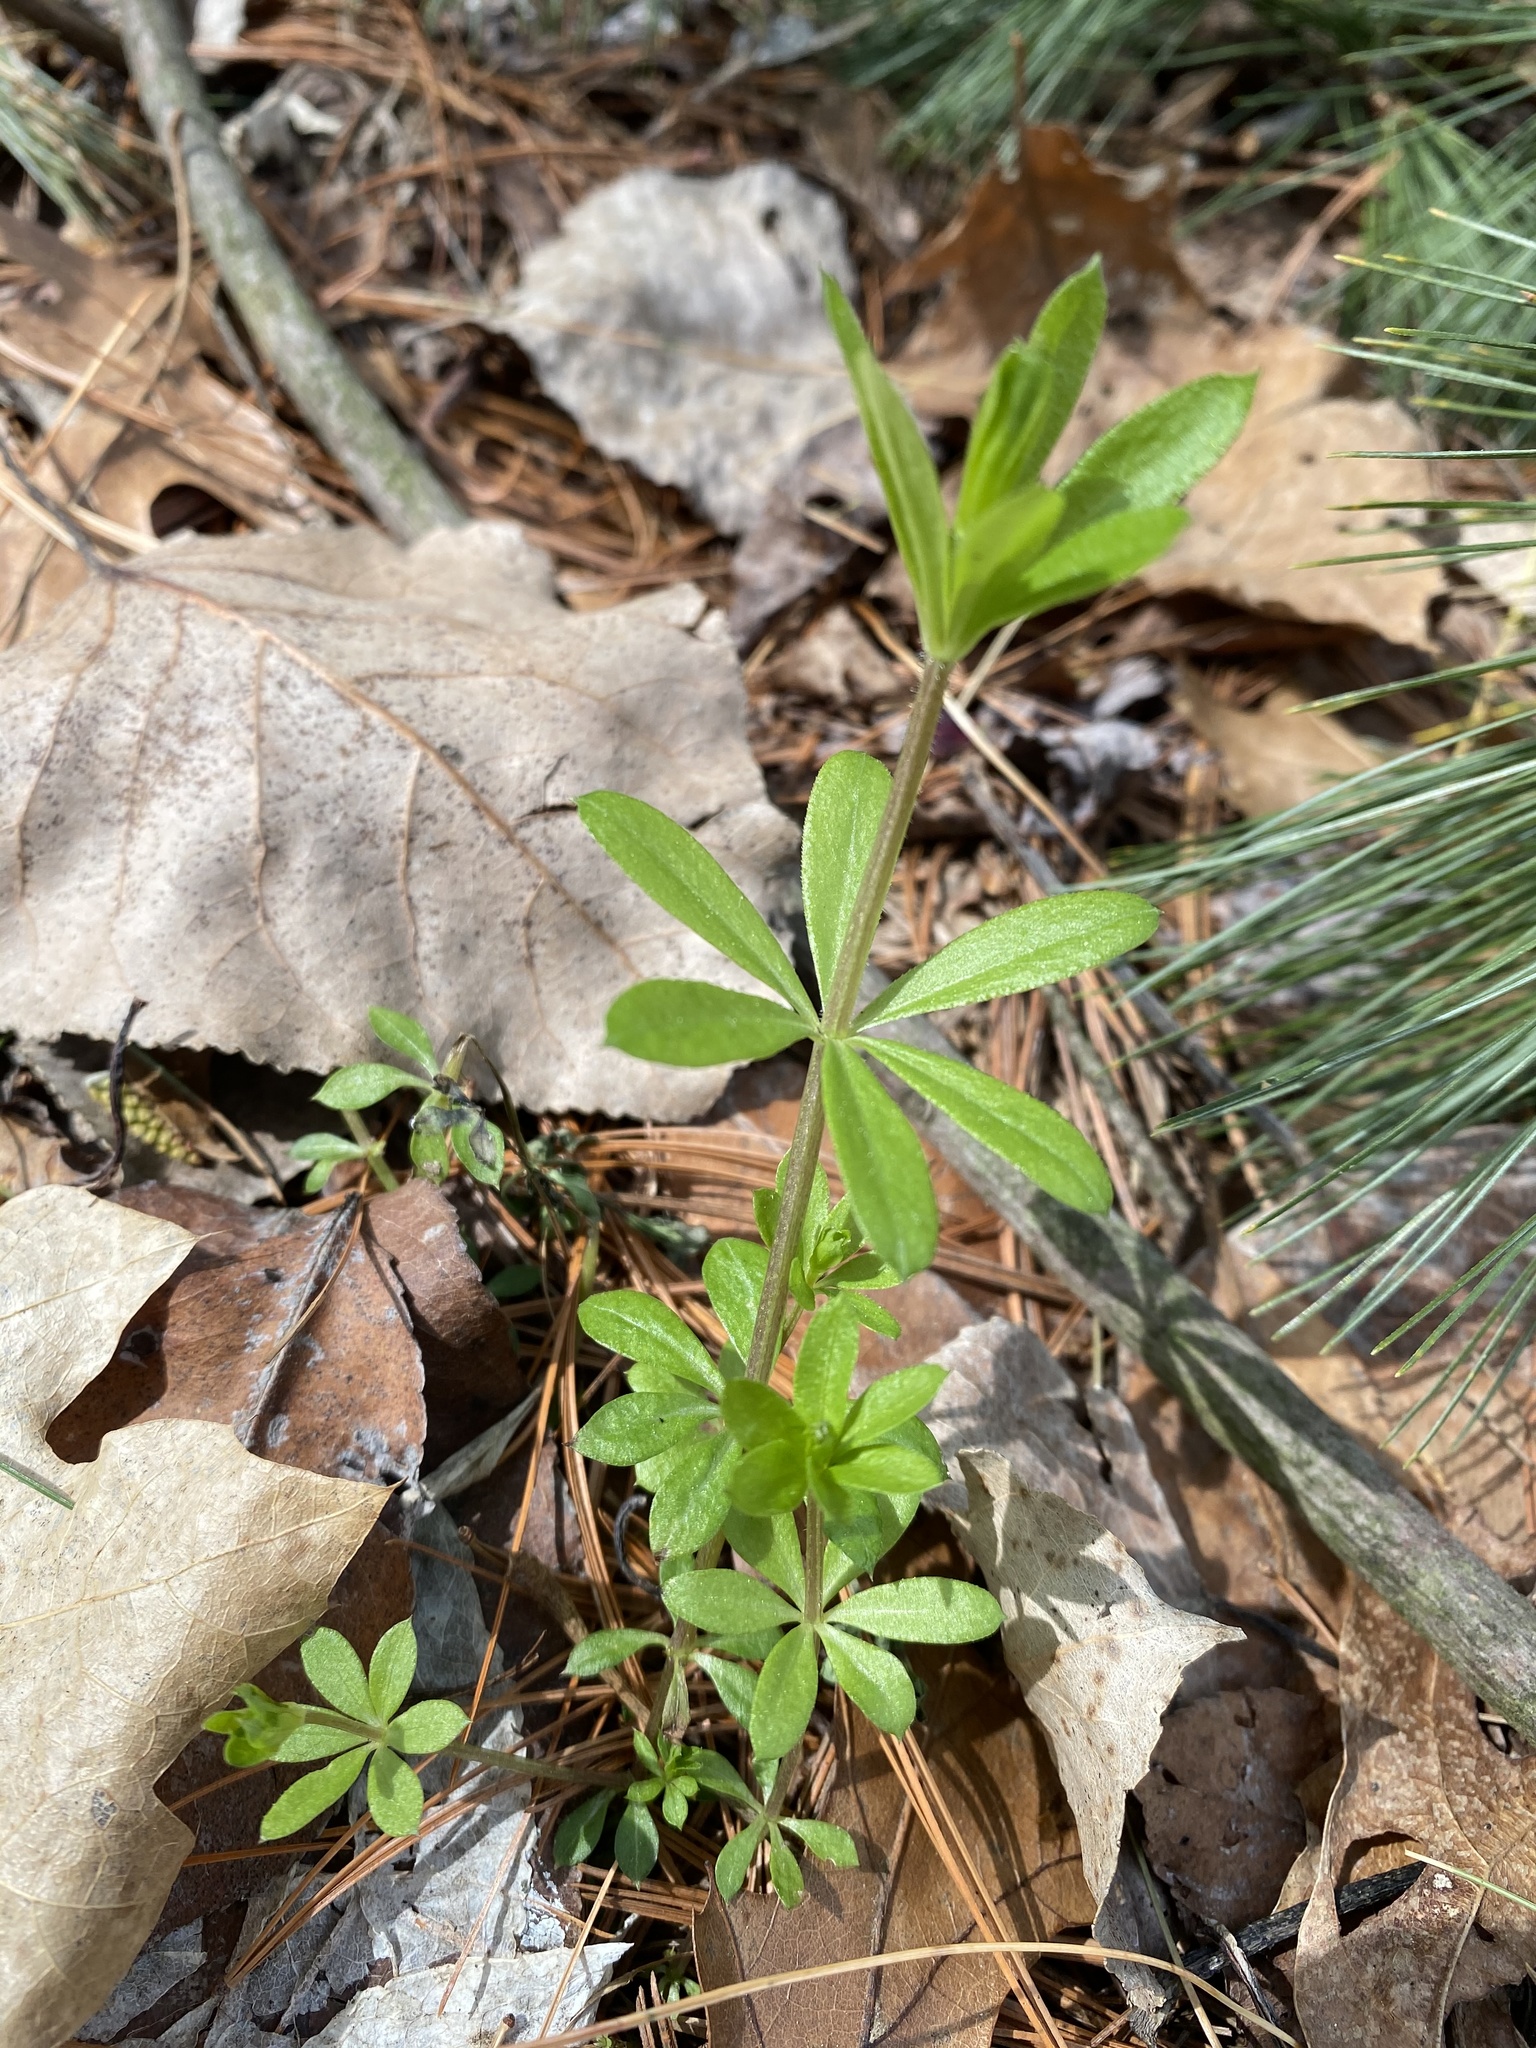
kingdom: Plantae
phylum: Tracheophyta
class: Magnoliopsida
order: Gentianales
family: Rubiaceae
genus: Galium
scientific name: Galium triflorum
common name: Fragrant bedstraw
